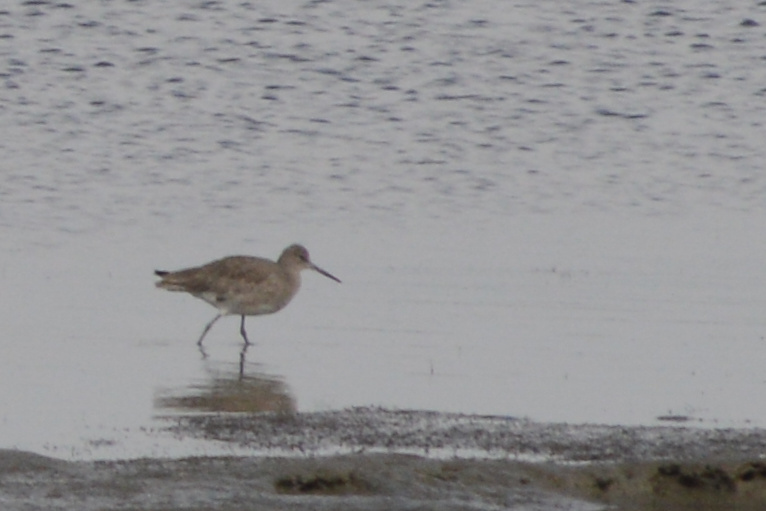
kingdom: Animalia
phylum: Chordata
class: Aves
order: Charadriiformes
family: Scolopacidae
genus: Tringa
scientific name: Tringa semipalmata
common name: Willet
